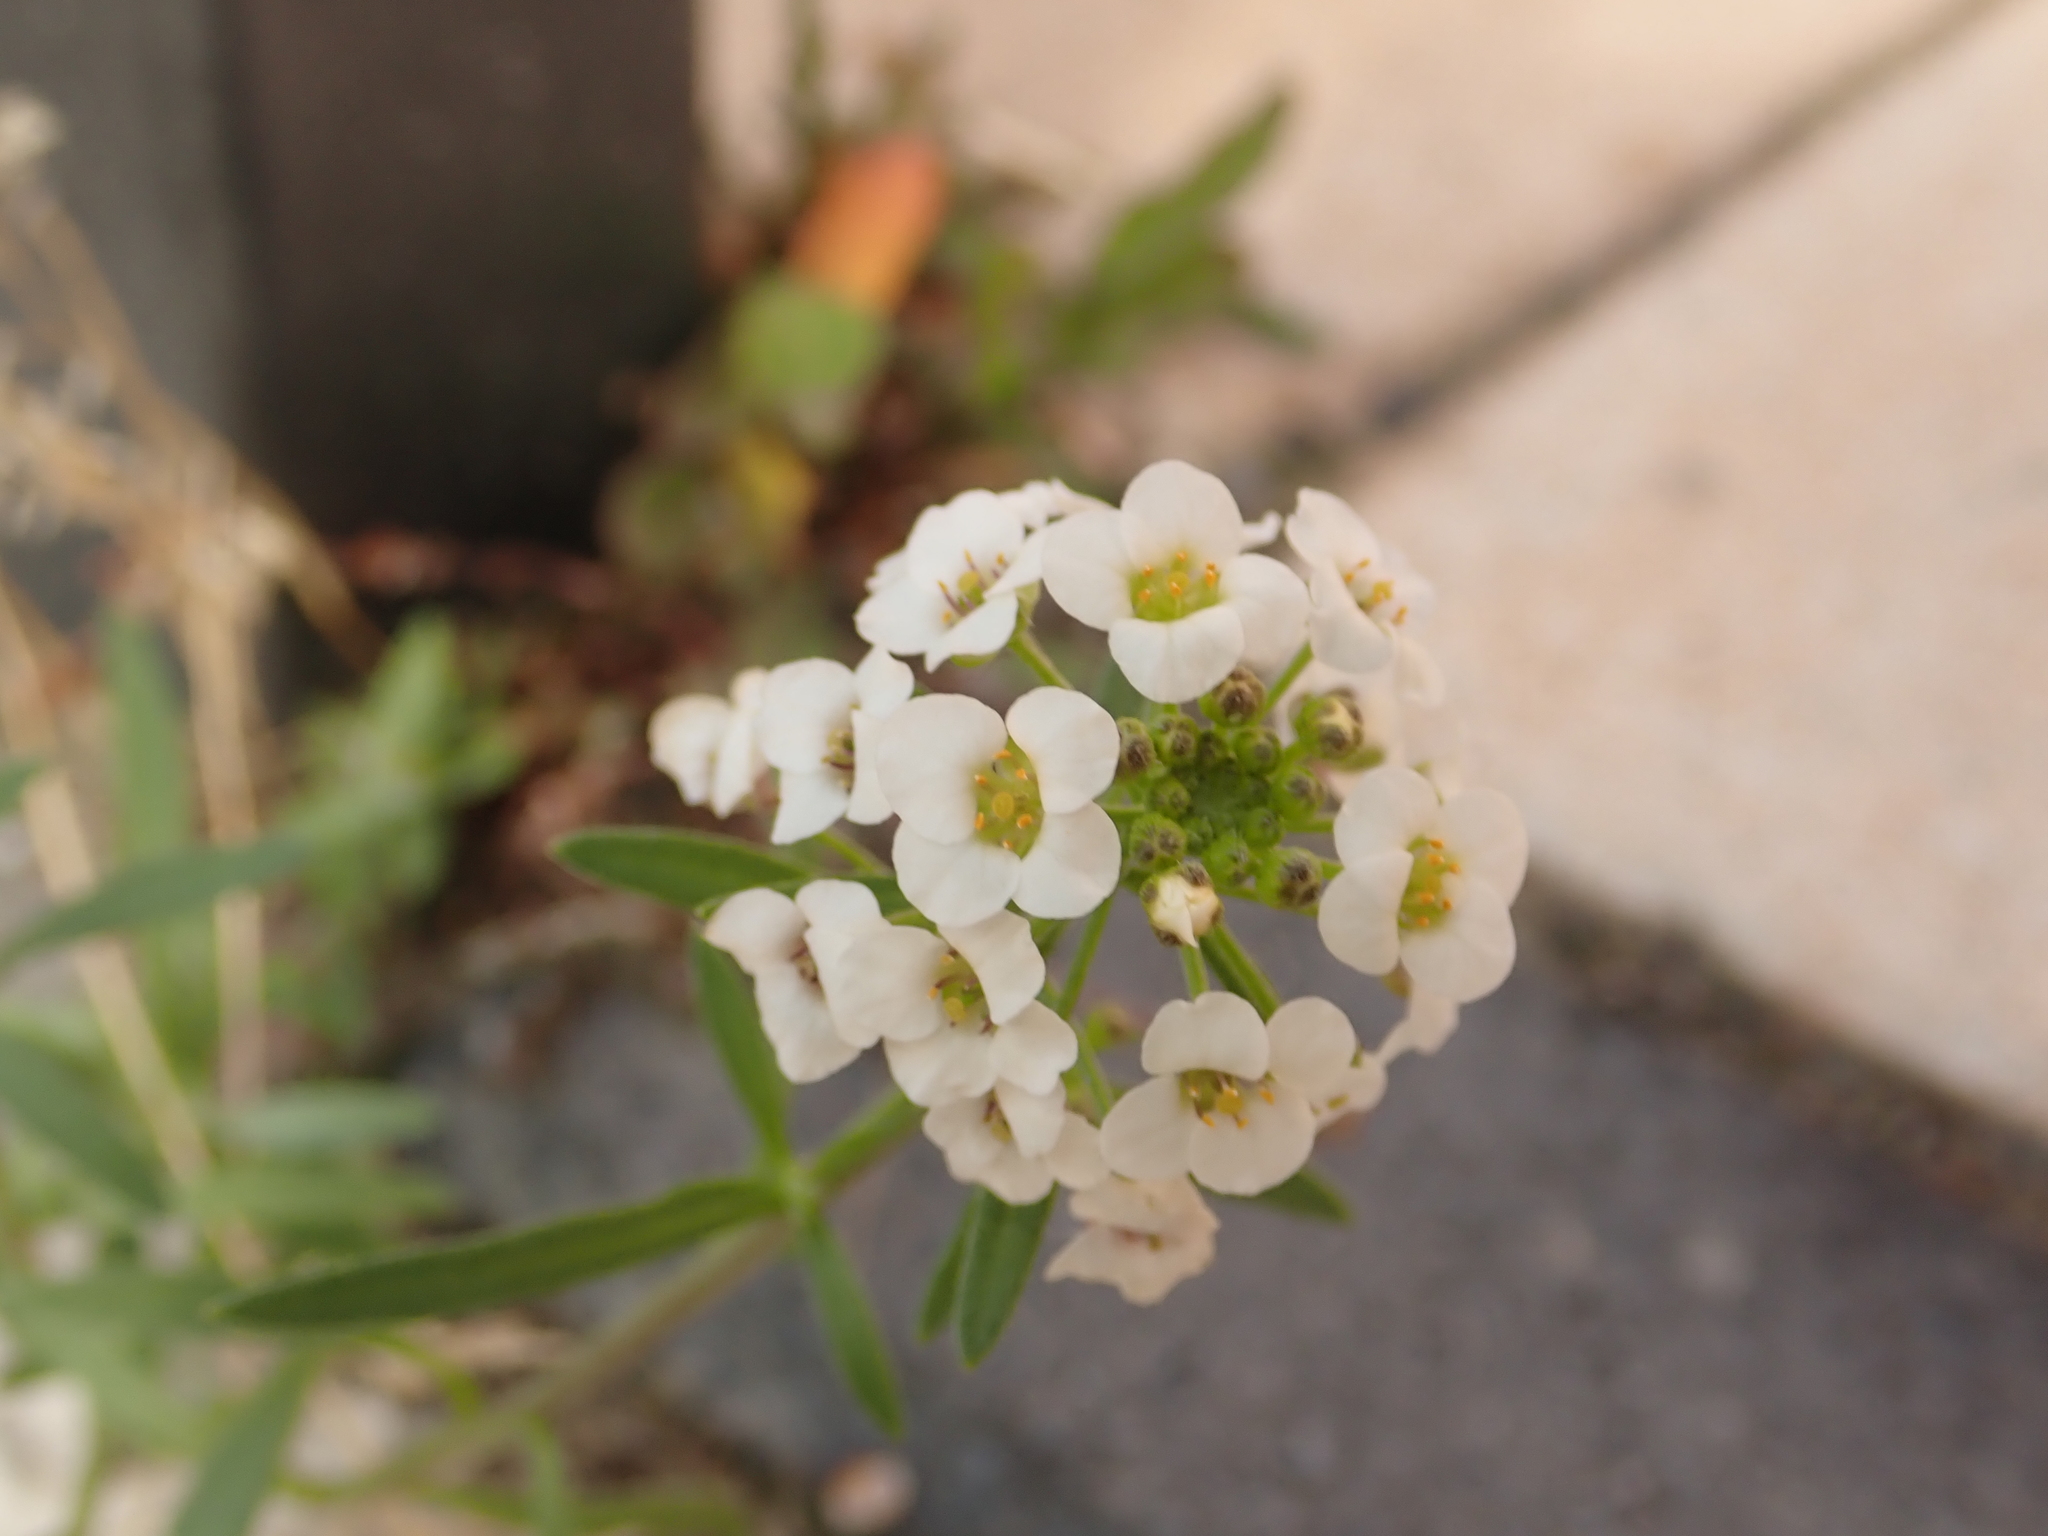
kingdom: Plantae
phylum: Tracheophyta
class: Magnoliopsida
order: Brassicales
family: Brassicaceae
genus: Lobularia
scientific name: Lobularia maritima
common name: Sweet alison
